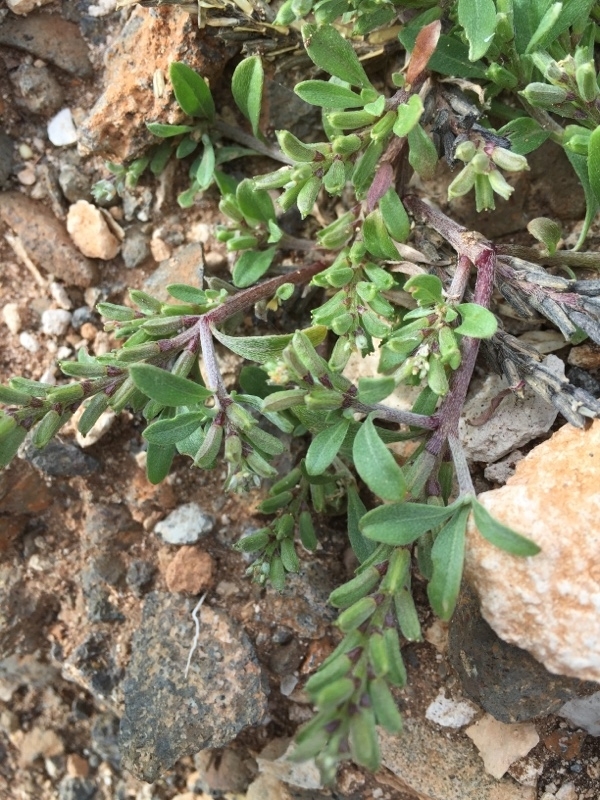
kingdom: Plantae
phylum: Tracheophyta
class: Magnoliopsida
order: Brassicales
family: Brassicaceae
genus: Notoceras
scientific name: Notoceras bicorne
